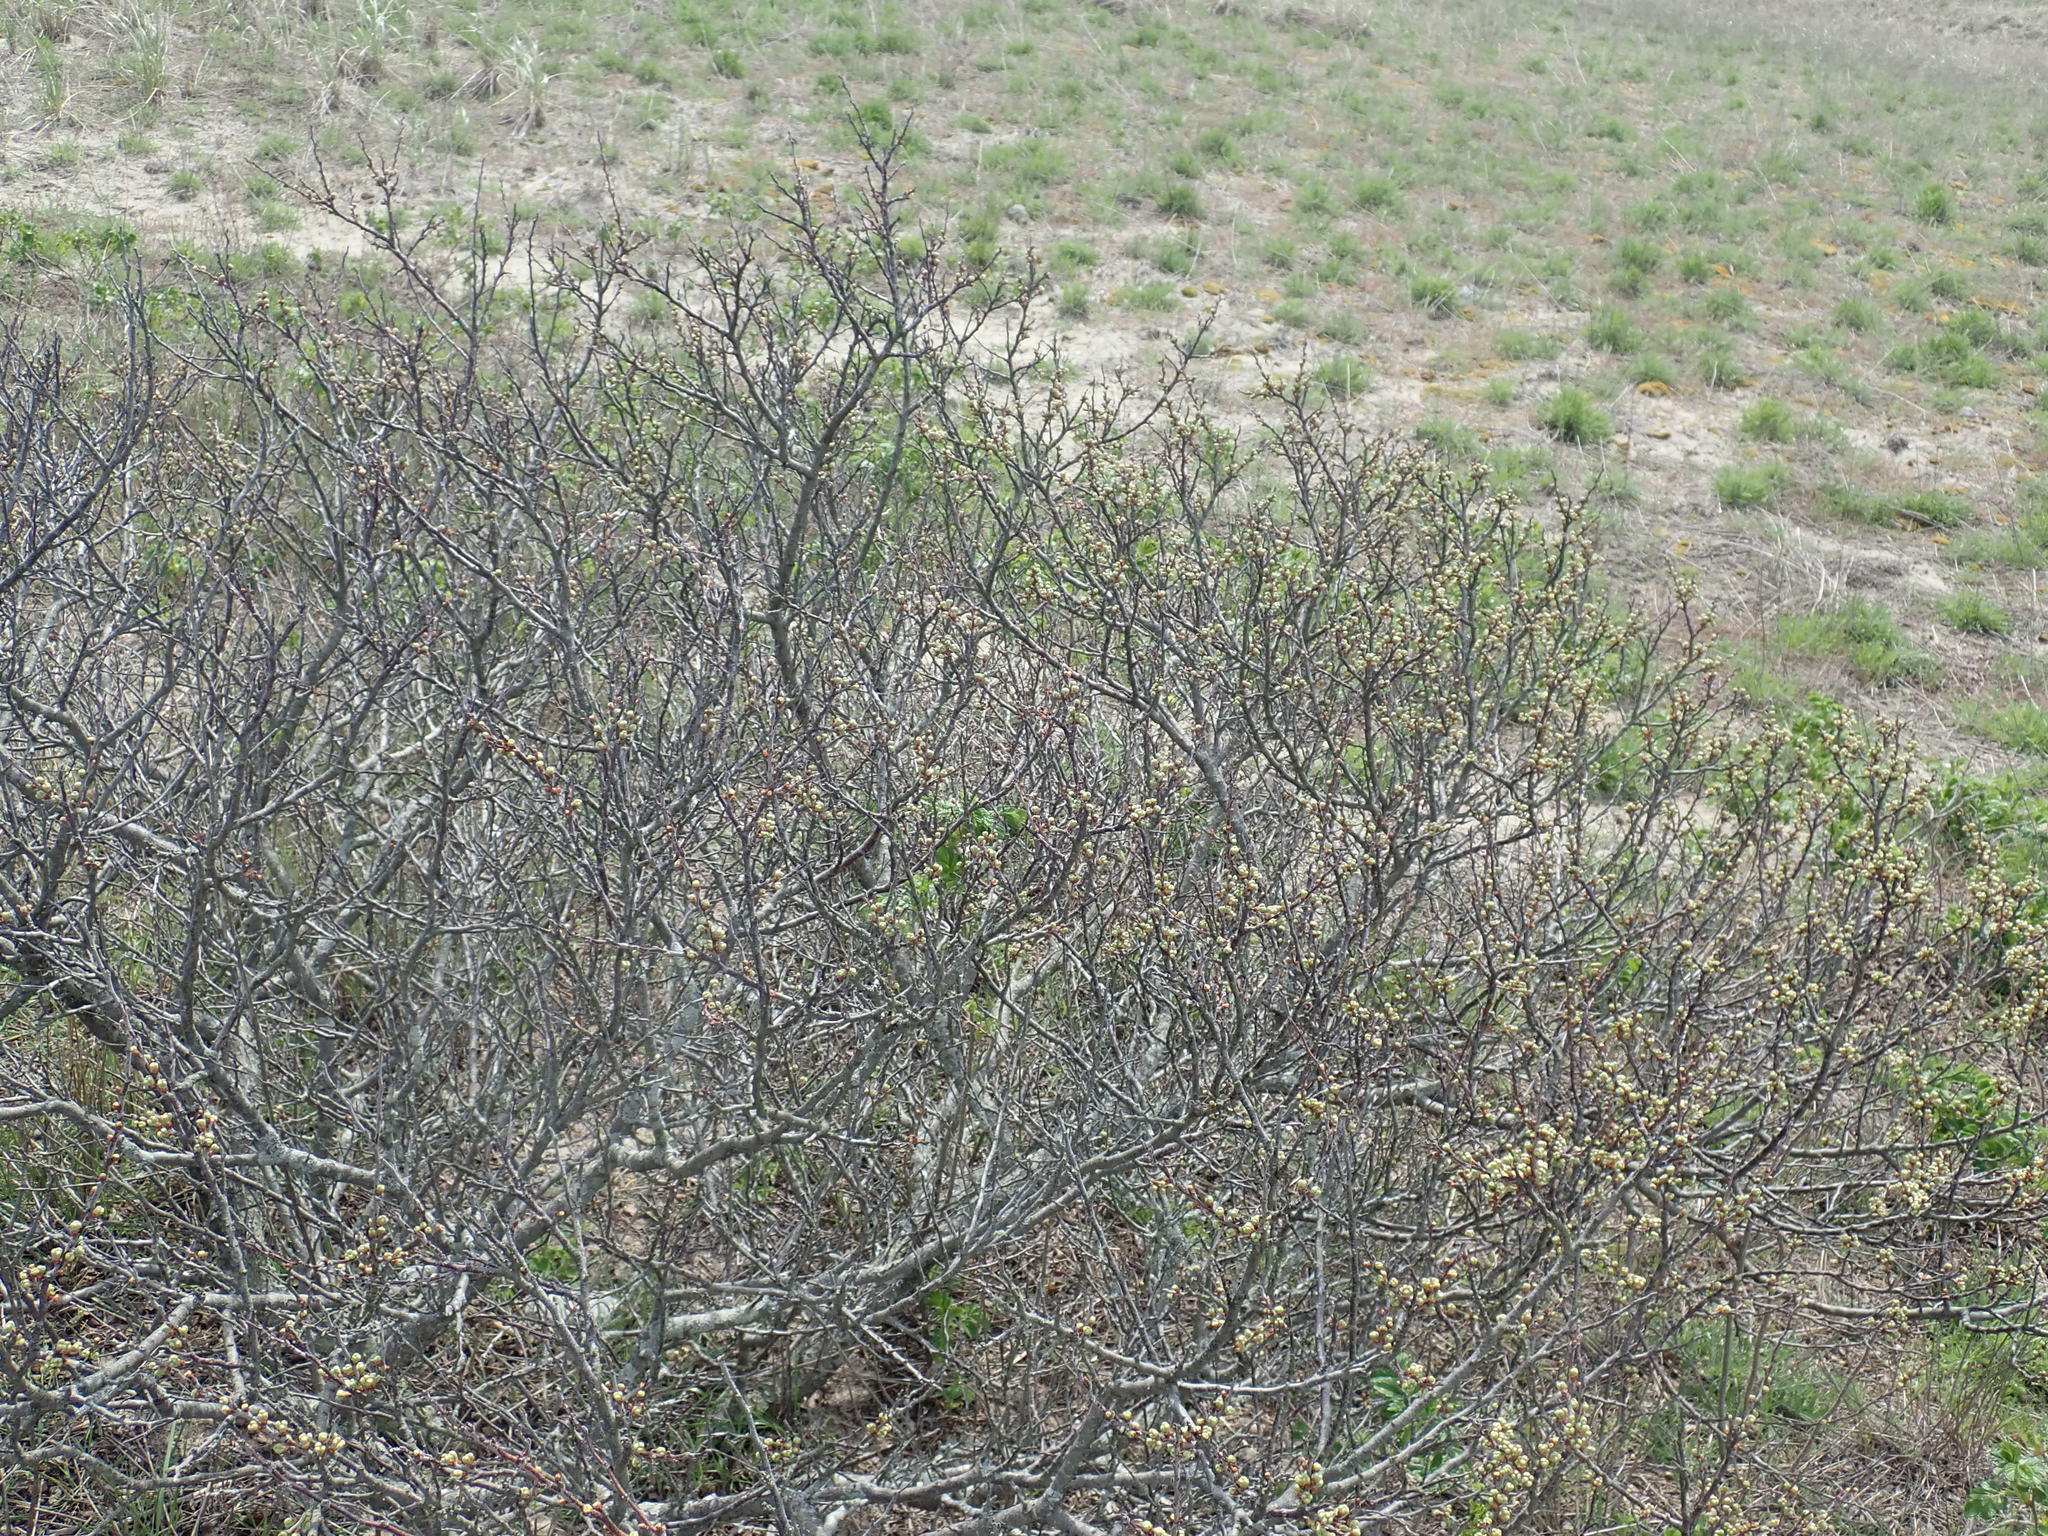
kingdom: Plantae
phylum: Tracheophyta
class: Magnoliopsida
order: Fagales
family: Myricaceae
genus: Morella
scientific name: Morella pensylvanica
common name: Northern bayberry
